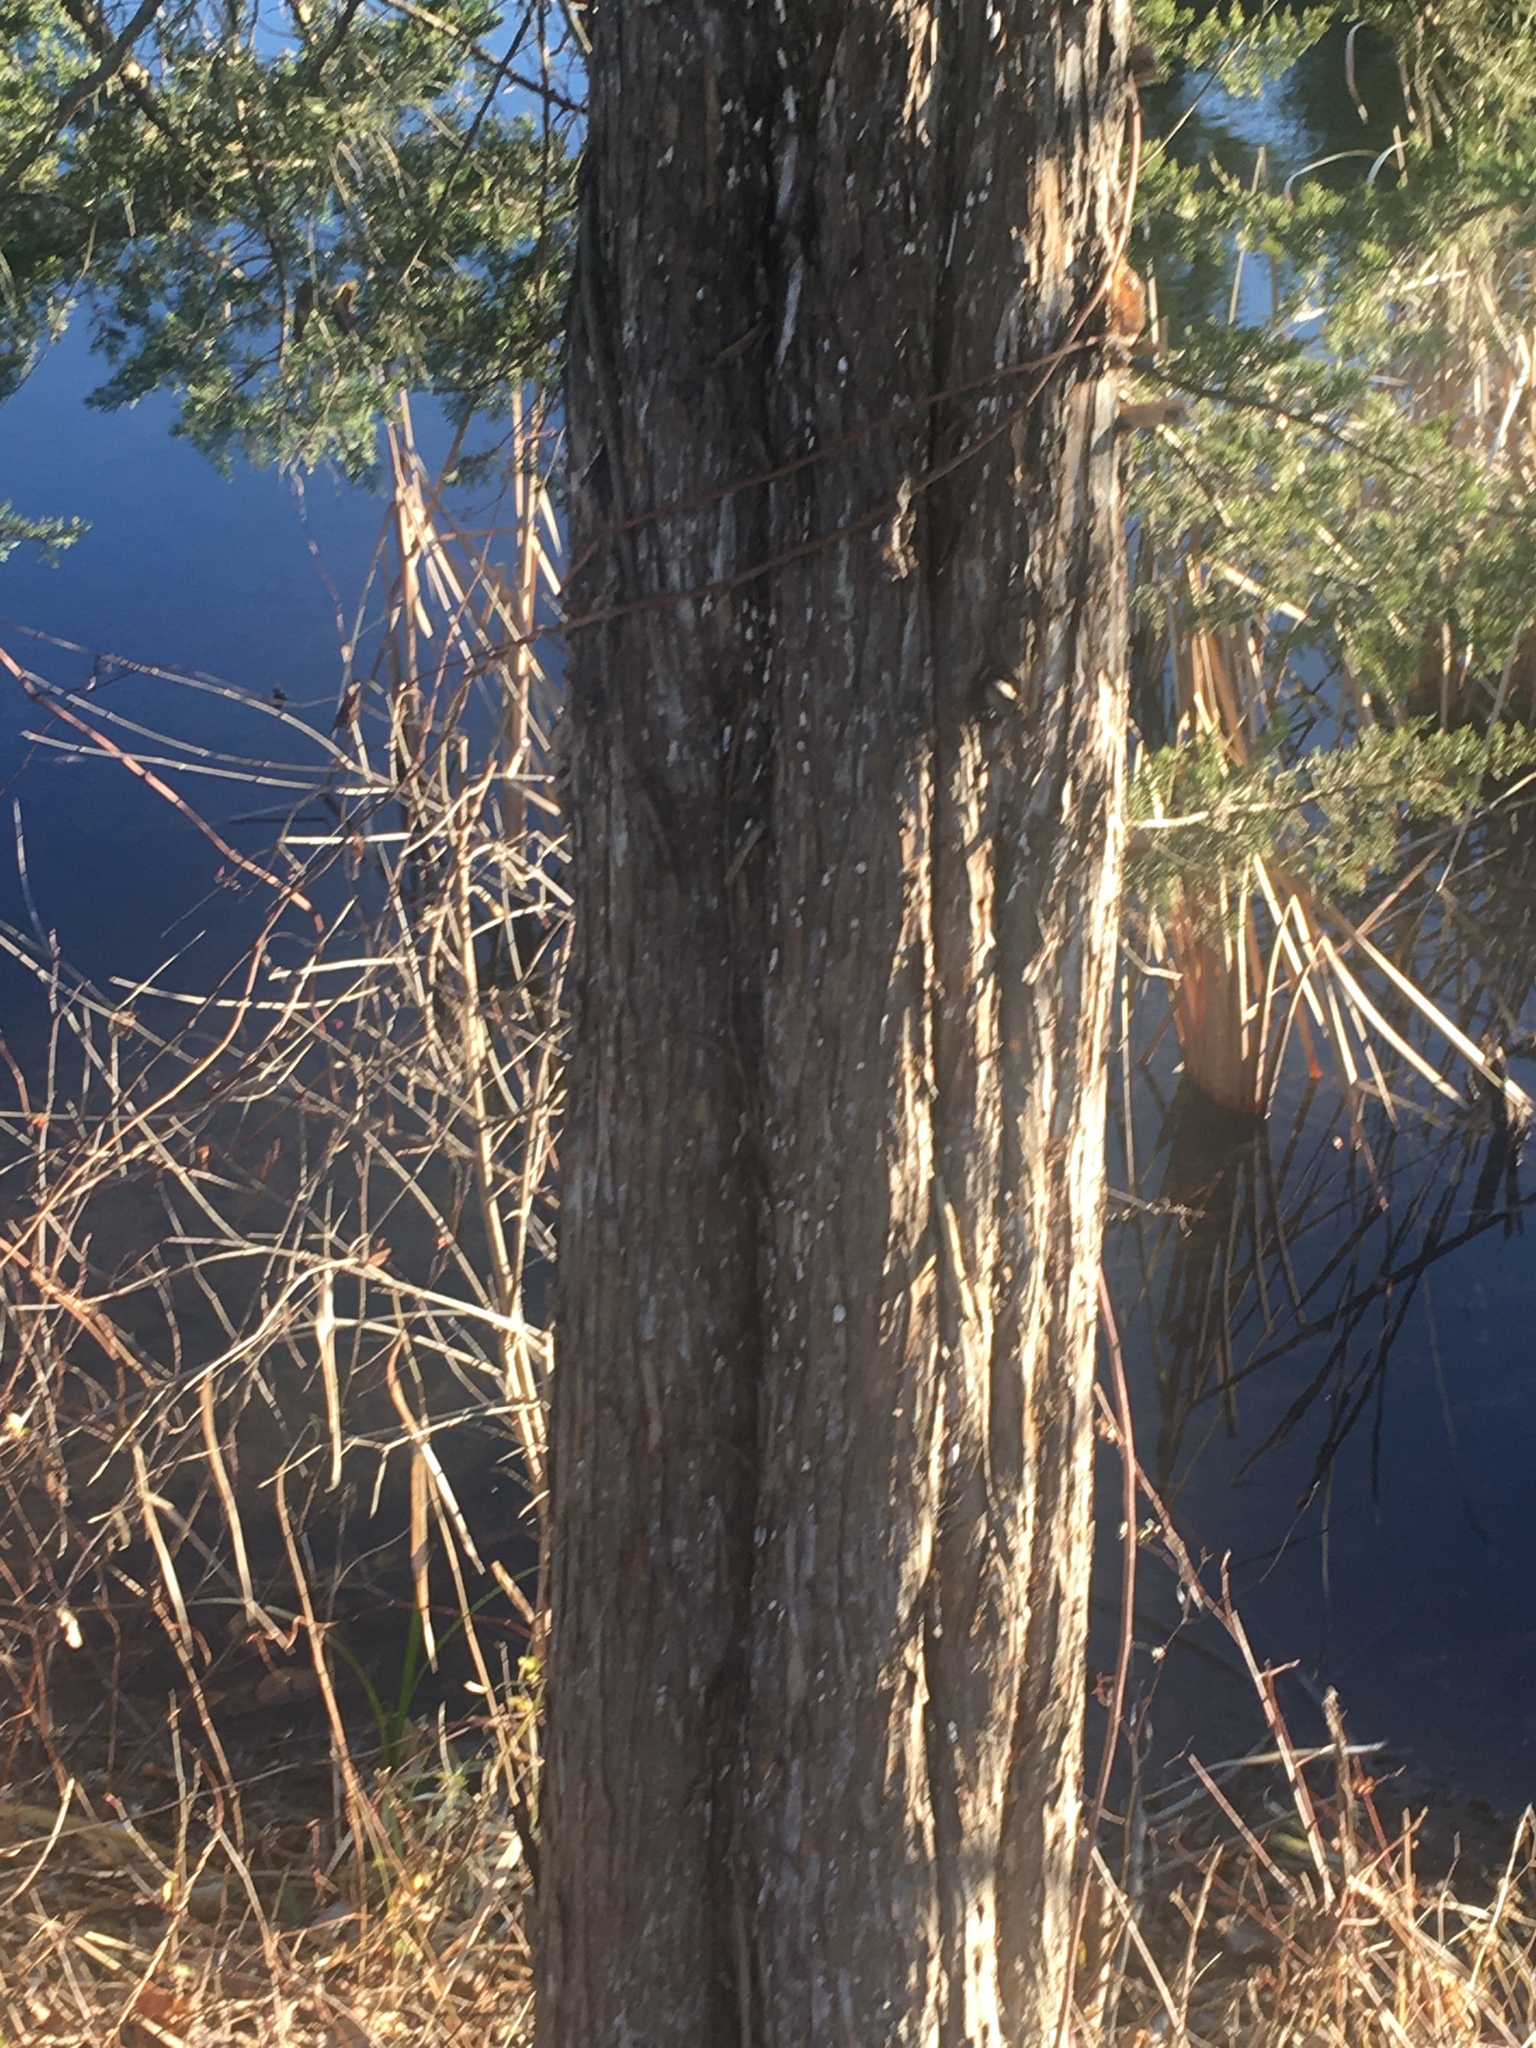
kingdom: Plantae
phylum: Tracheophyta
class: Pinopsida
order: Pinales
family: Cupressaceae
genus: Juniperus
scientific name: Juniperus virginiana
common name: Red juniper
